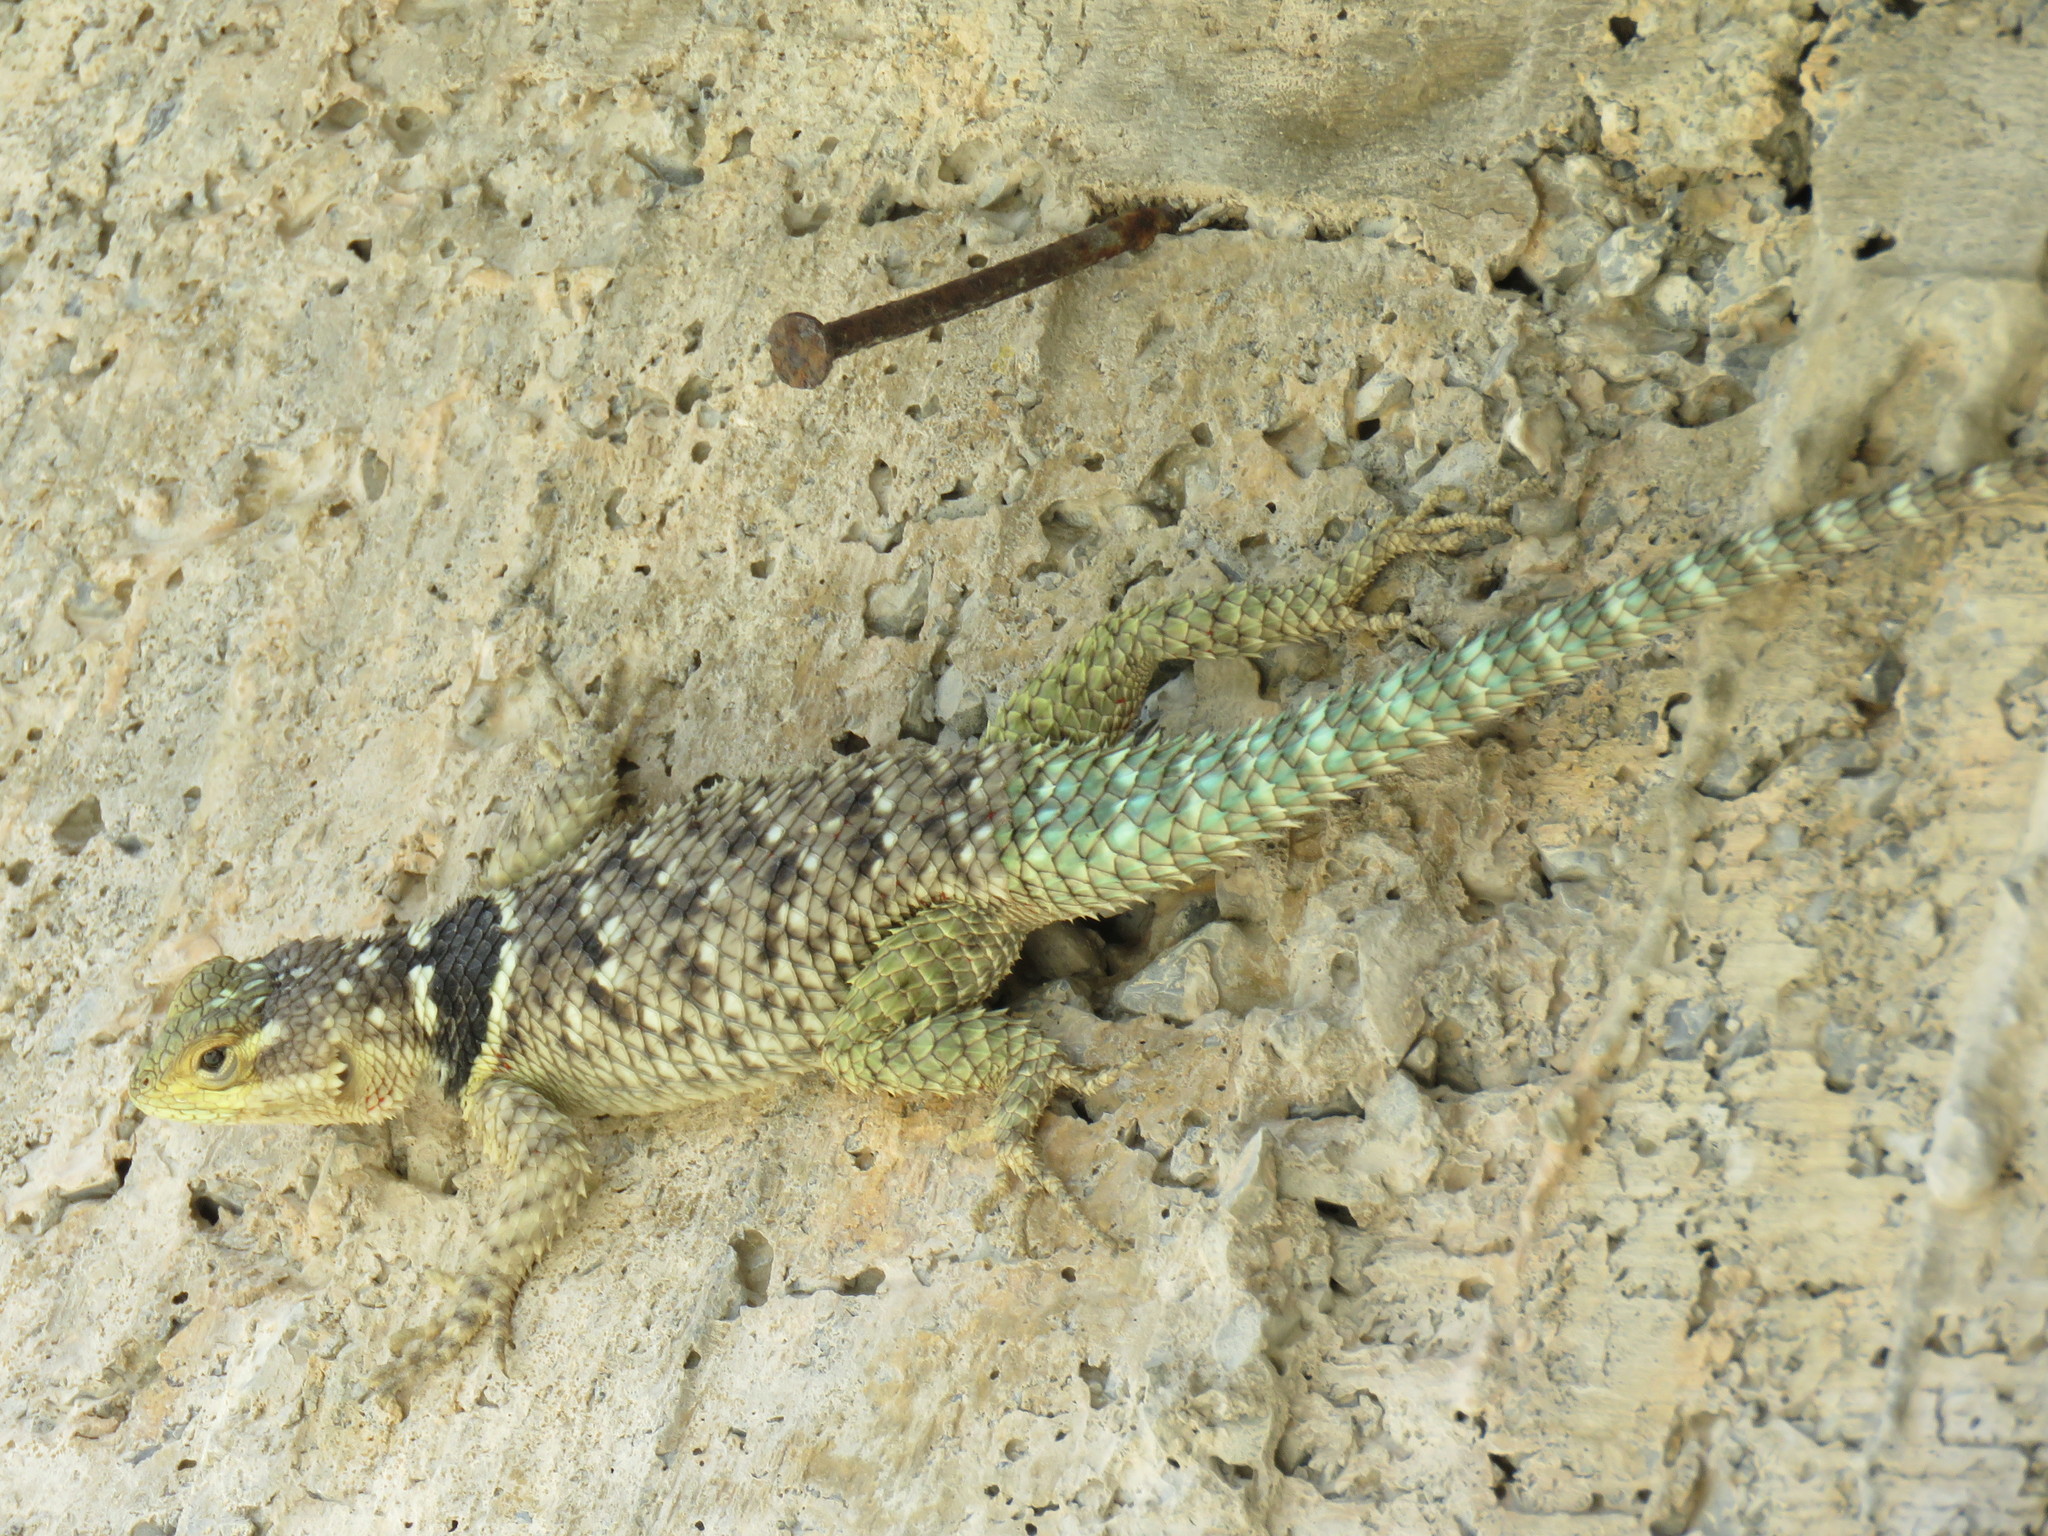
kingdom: Animalia
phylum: Chordata
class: Squamata
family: Phrynosomatidae
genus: Sceloporus
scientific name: Sceloporus cyanogenys
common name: Blue spiny lizard
